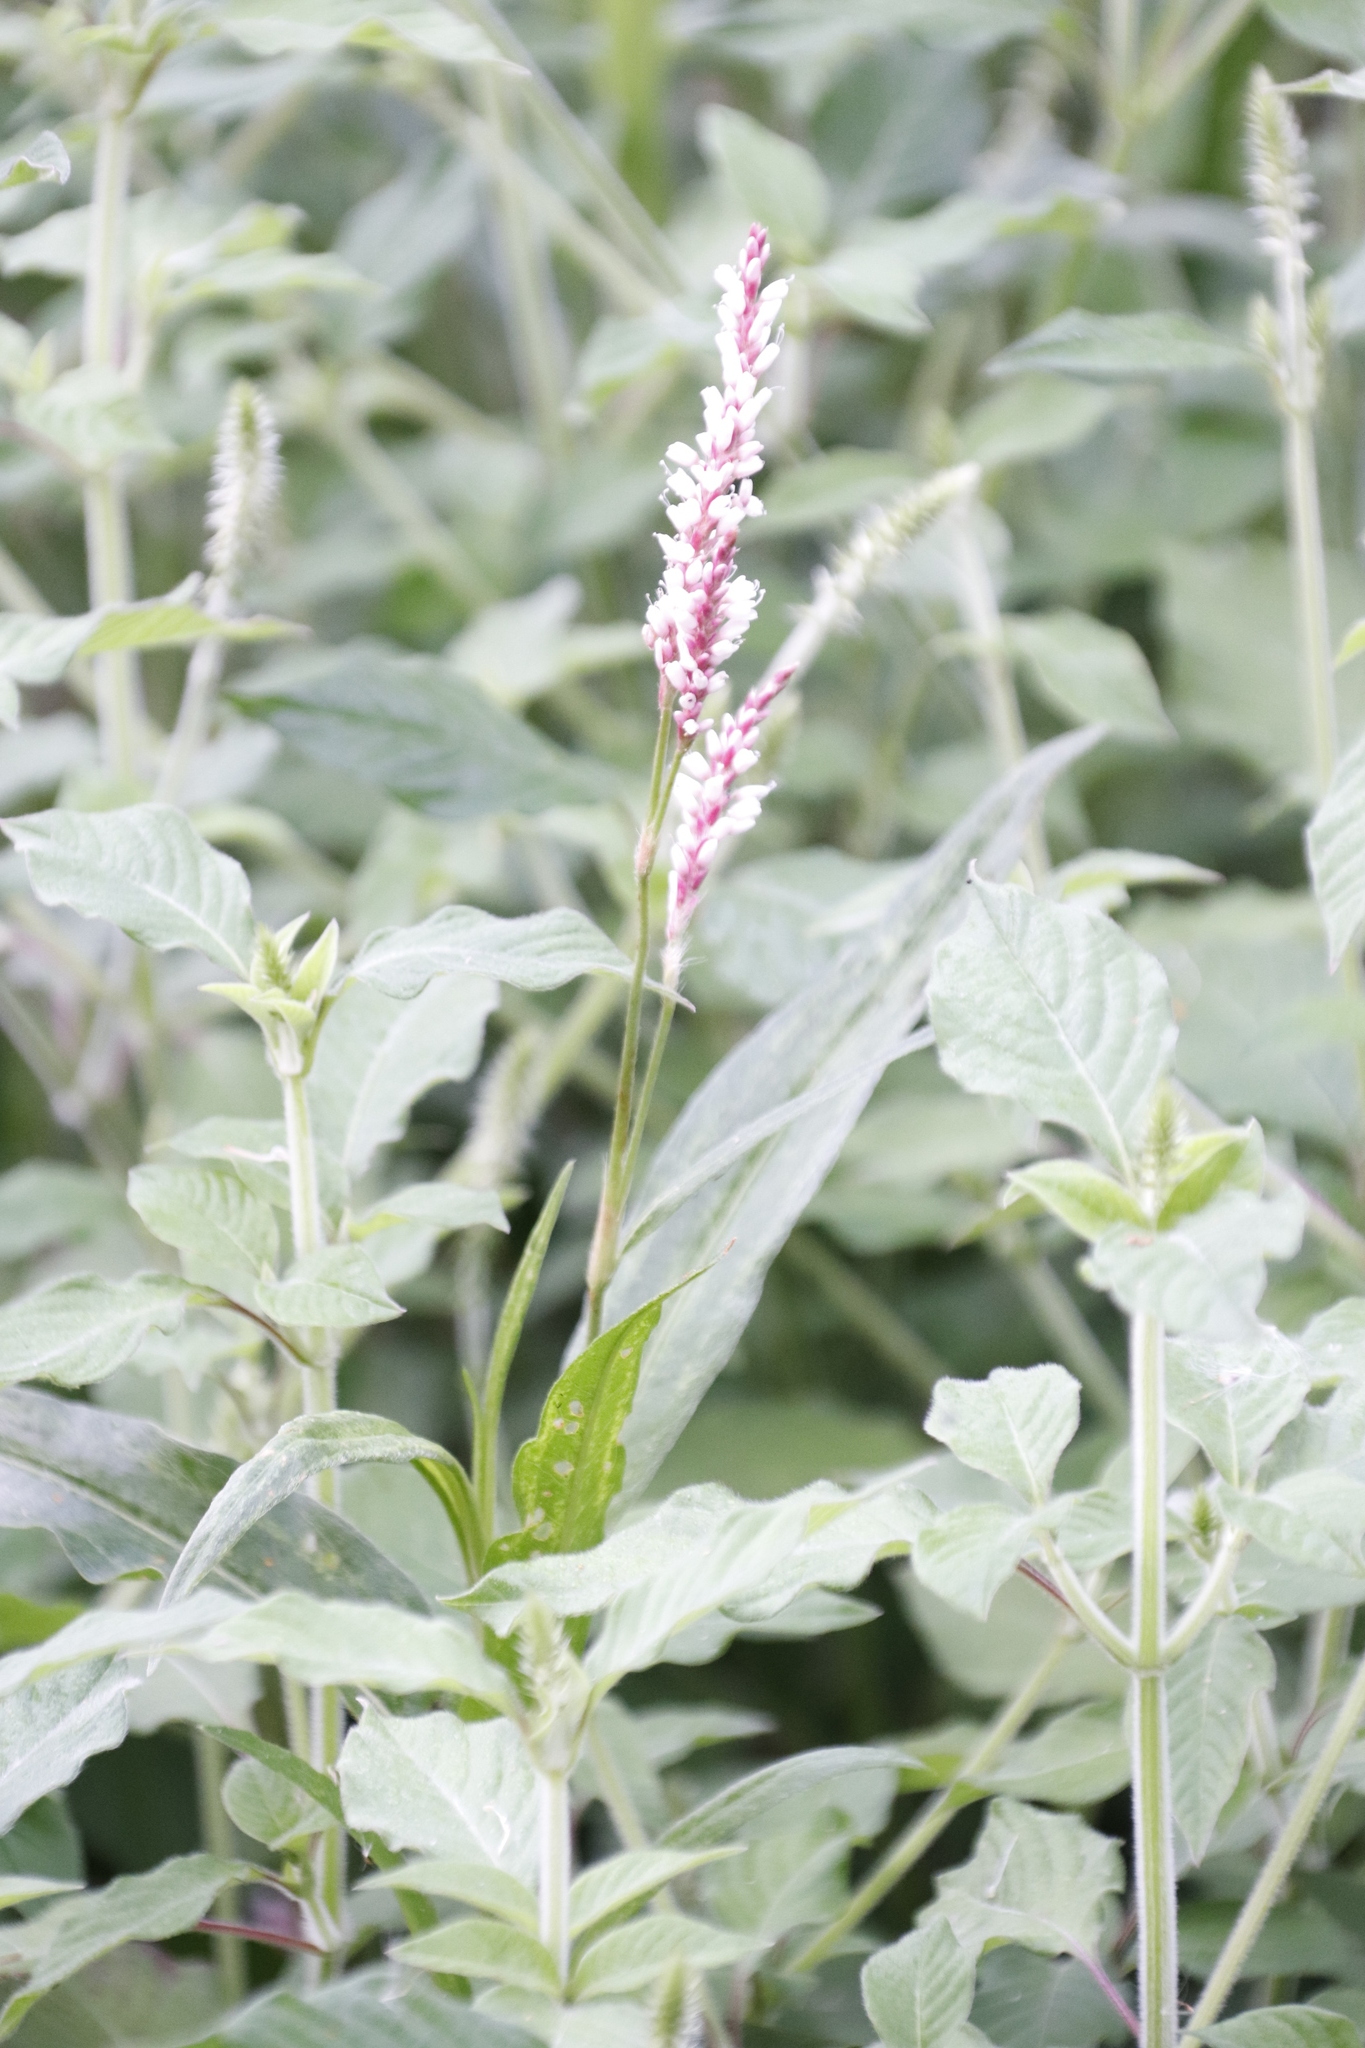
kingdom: Plantae
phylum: Tracheophyta
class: Magnoliopsida
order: Caryophyllales
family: Polygonaceae
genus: Persicaria
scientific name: Persicaria madagascariensis
